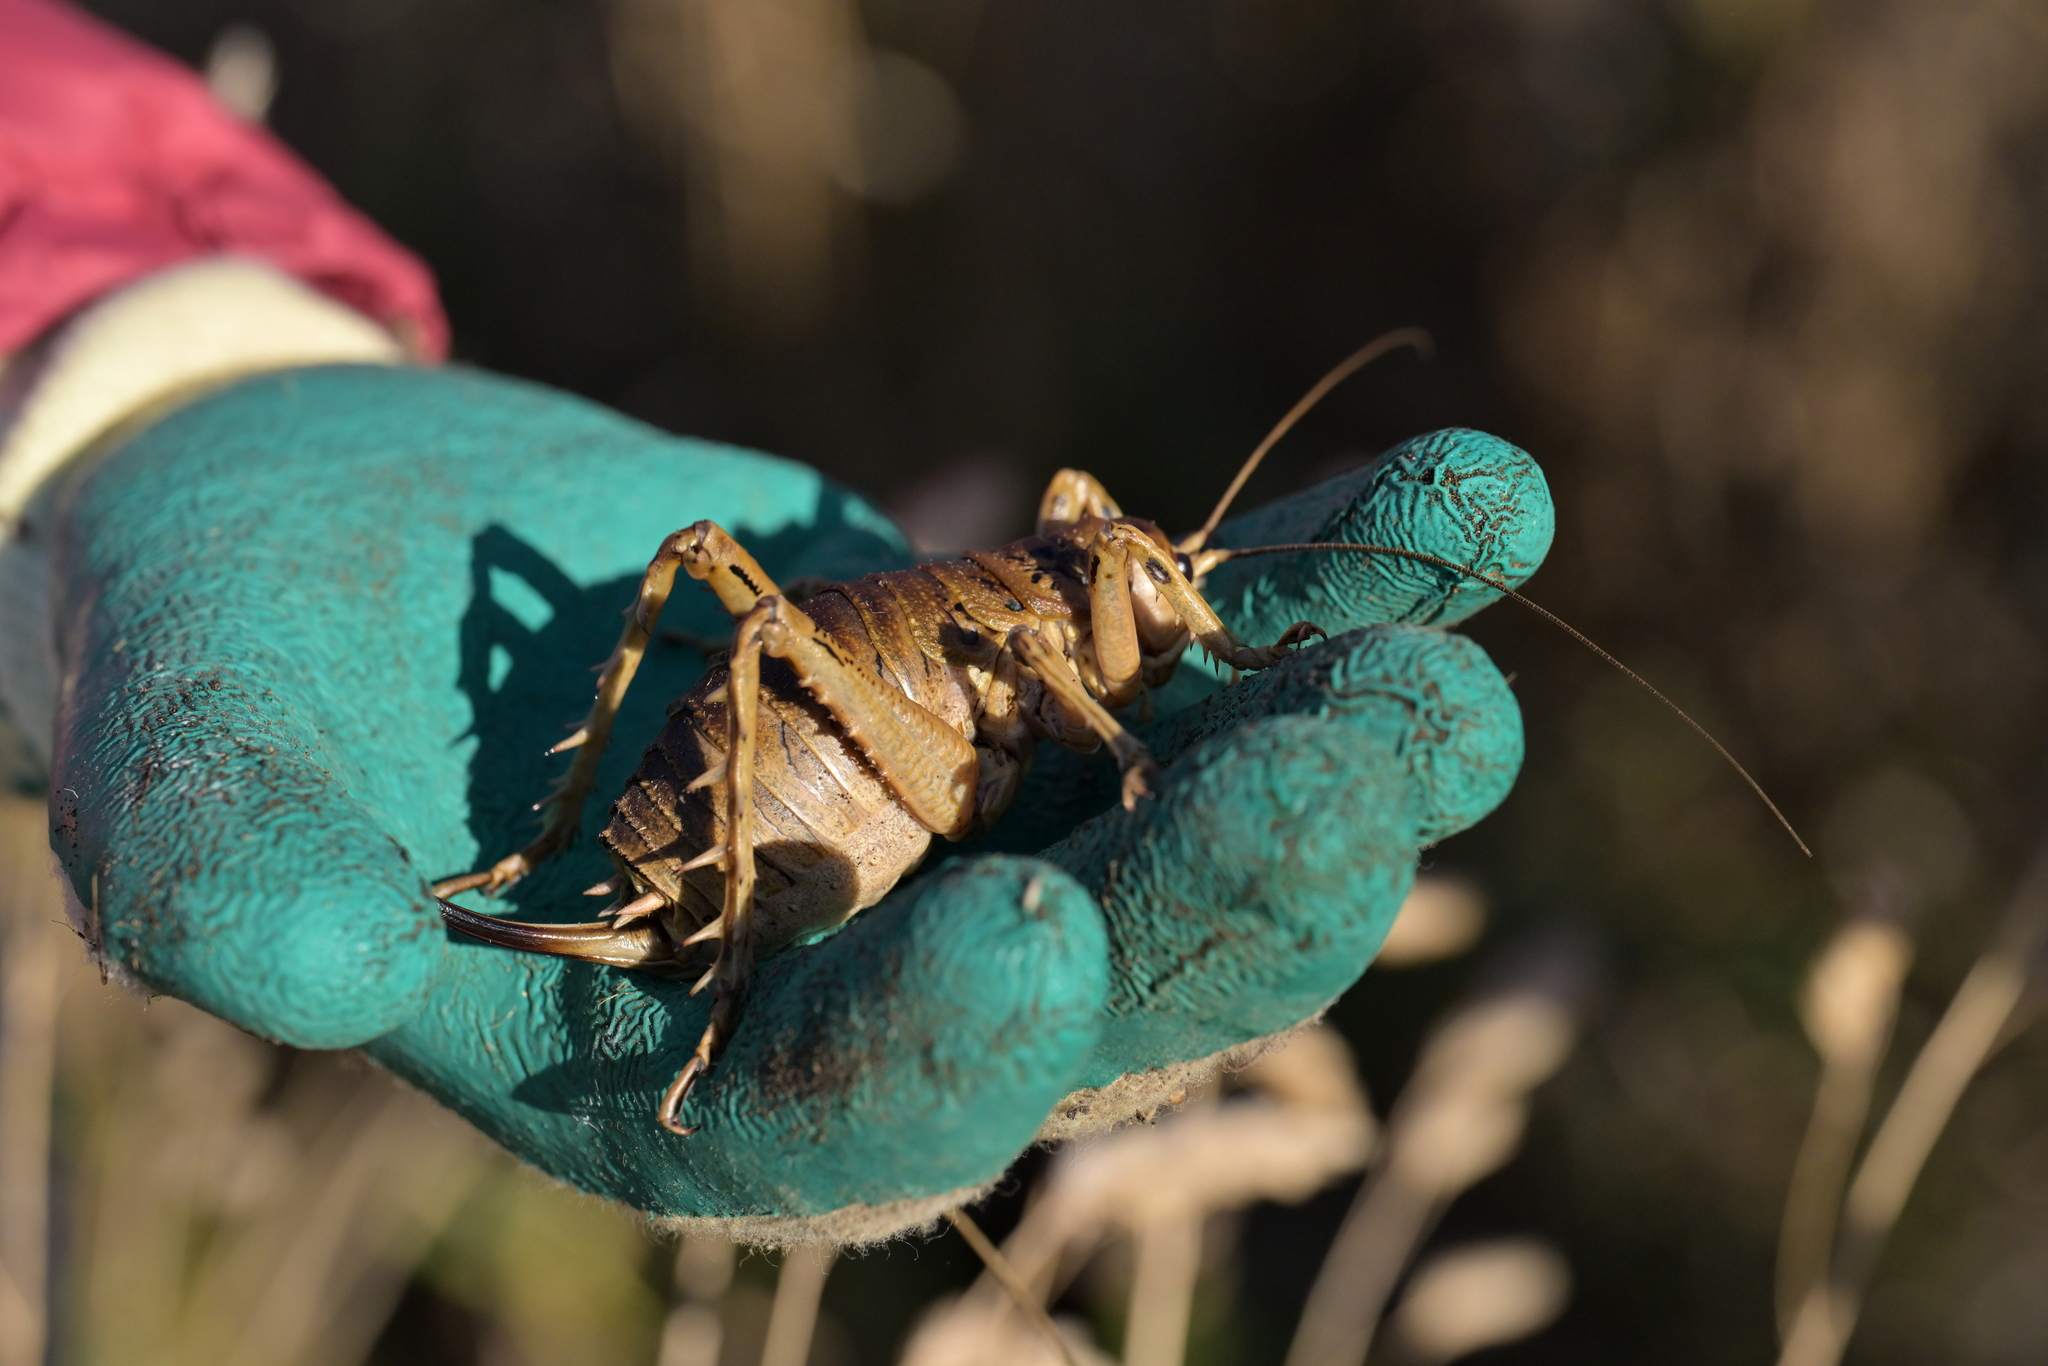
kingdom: Animalia
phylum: Arthropoda
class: Insecta
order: Orthoptera
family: Anostostomatidae
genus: Deinacrida
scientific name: Deinacrida rugosa
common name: Stephens island weta
